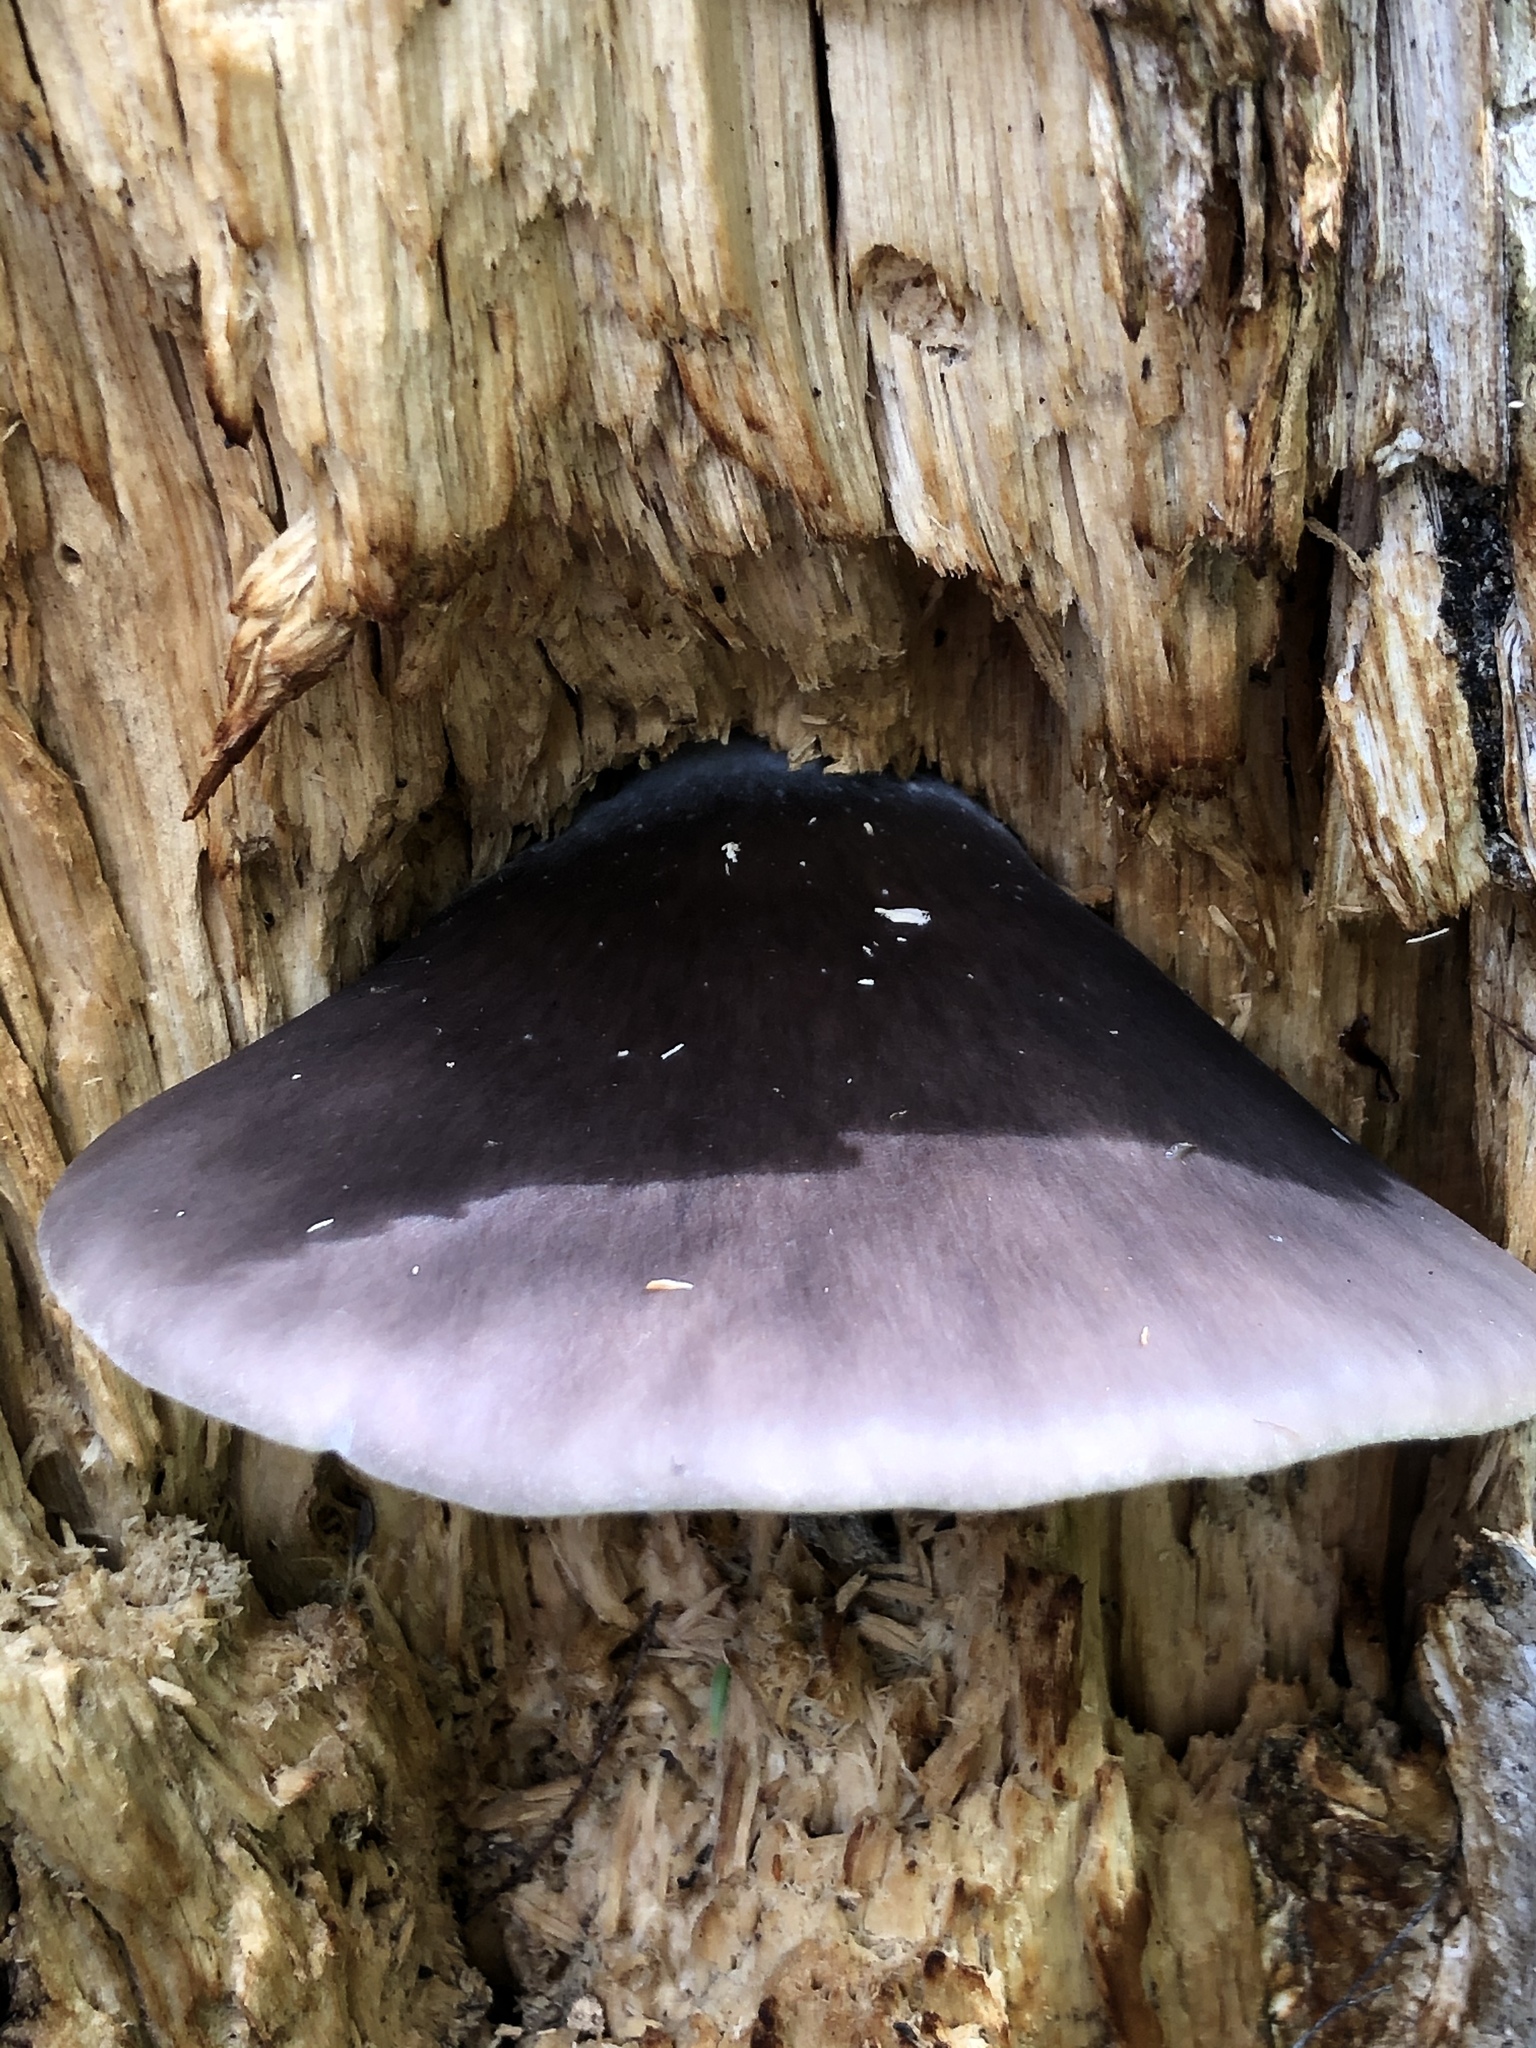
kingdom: Fungi
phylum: Basidiomycota
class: Agaricomycetes
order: Agaricales
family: Pleurotaceae
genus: Pleurotus
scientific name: Pleurotus australis
